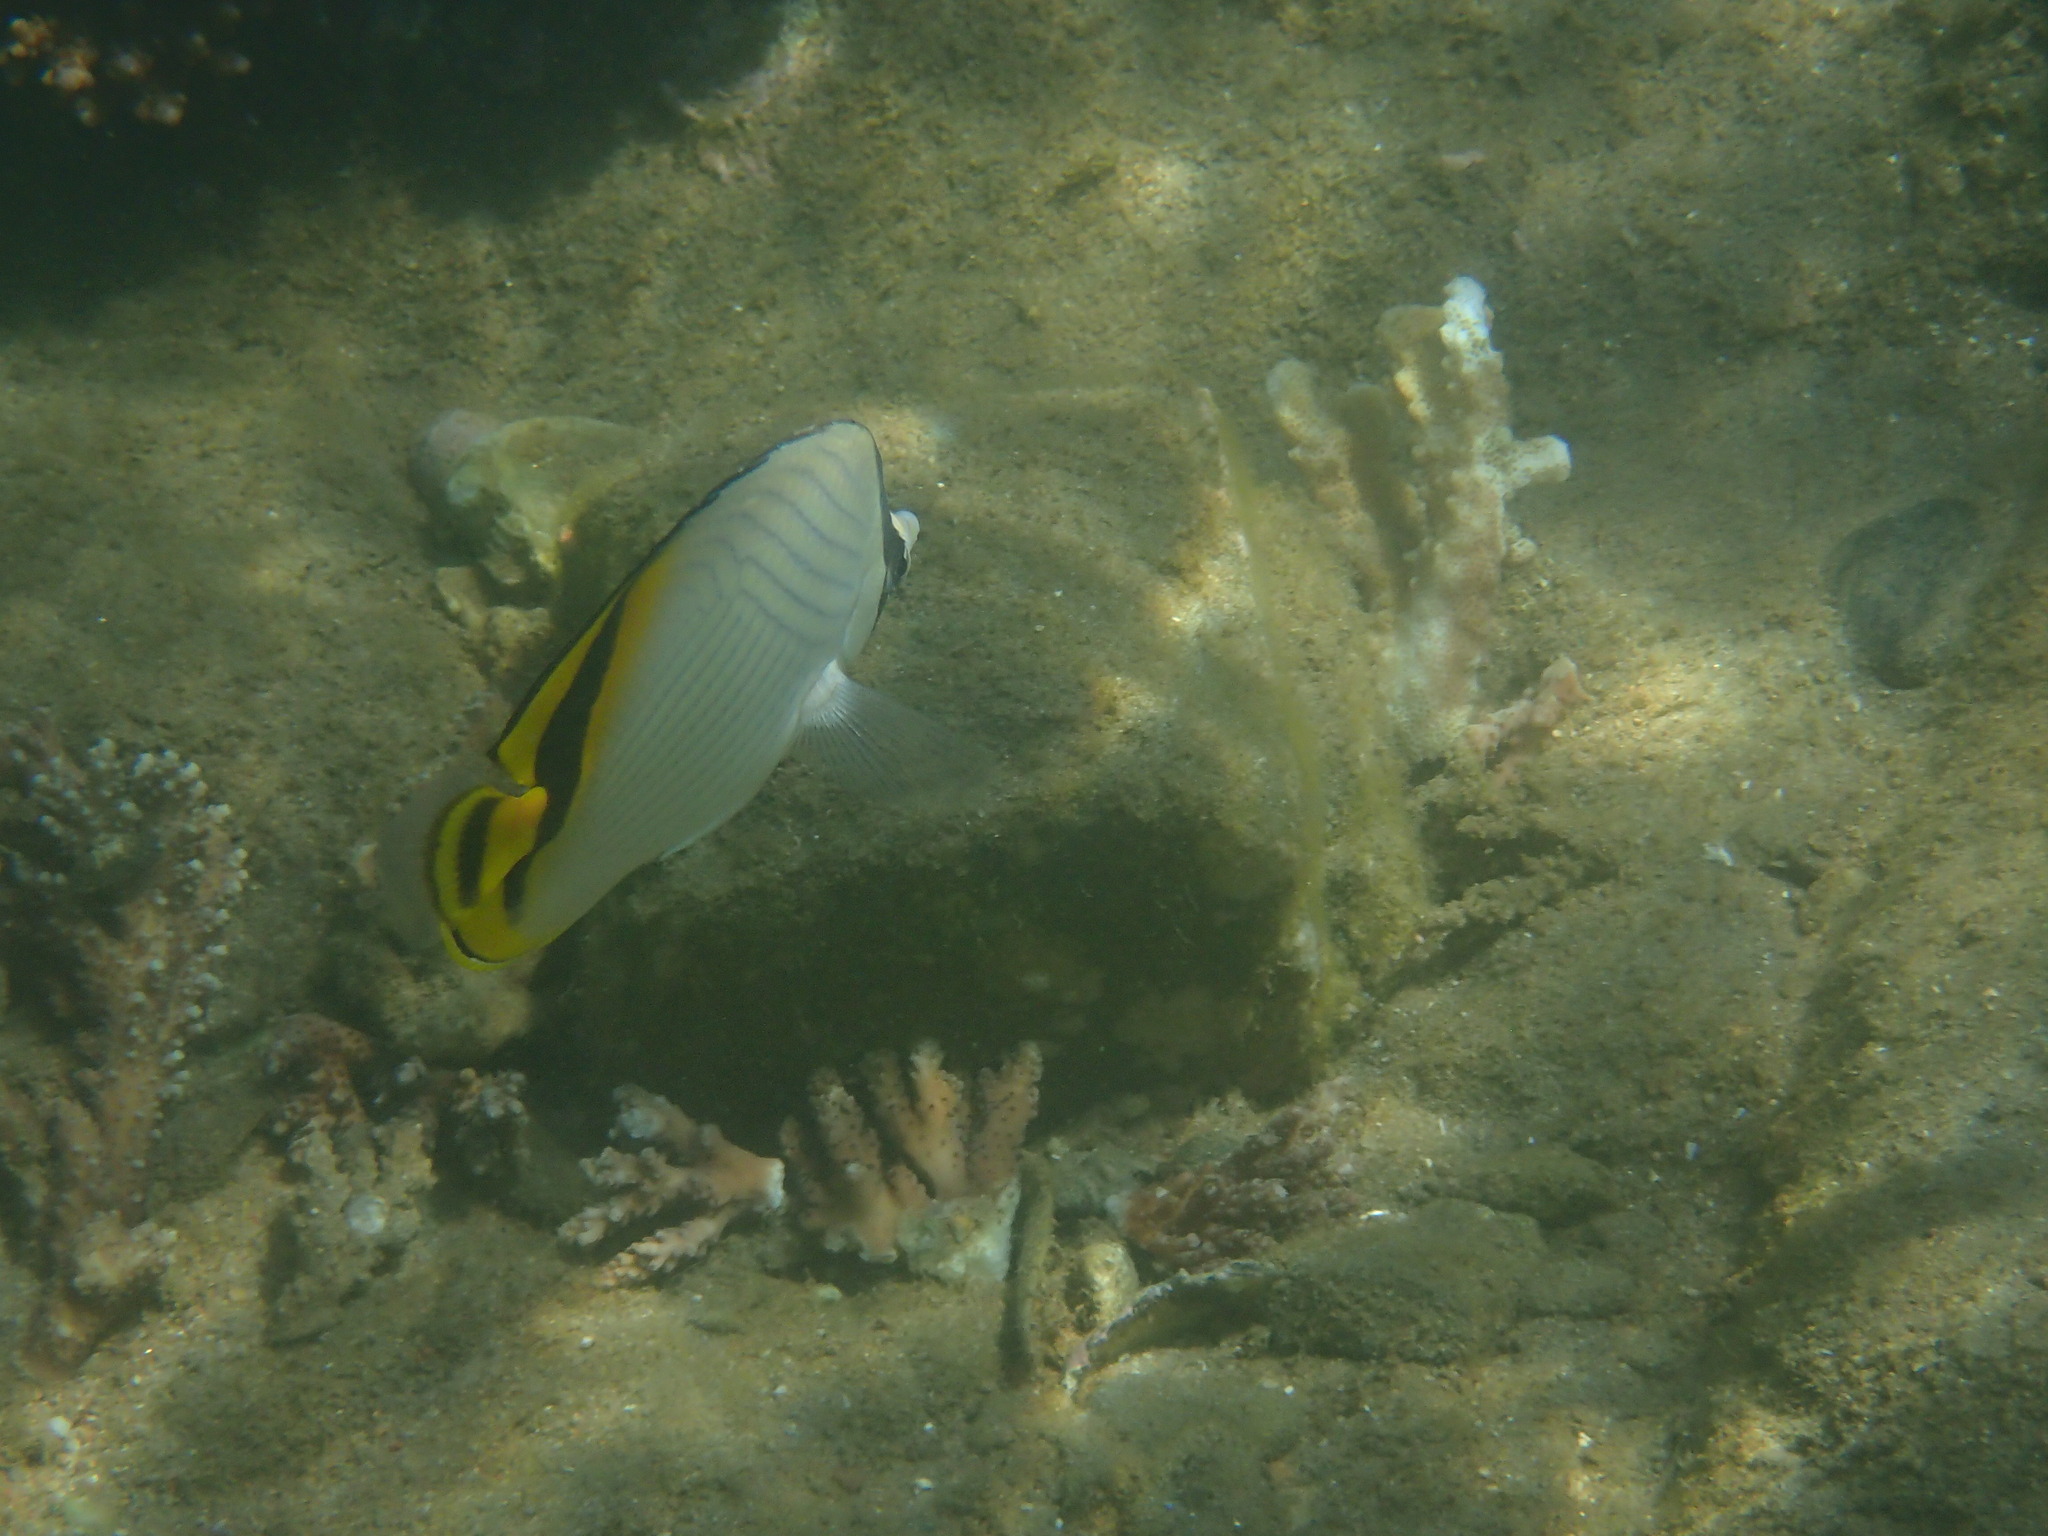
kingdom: Animalia
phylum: Chordata
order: Perciformes
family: Chaetodontidae
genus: Chaetodon
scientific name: Chaetodon vagabundus
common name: Vagabond butterflyfish
